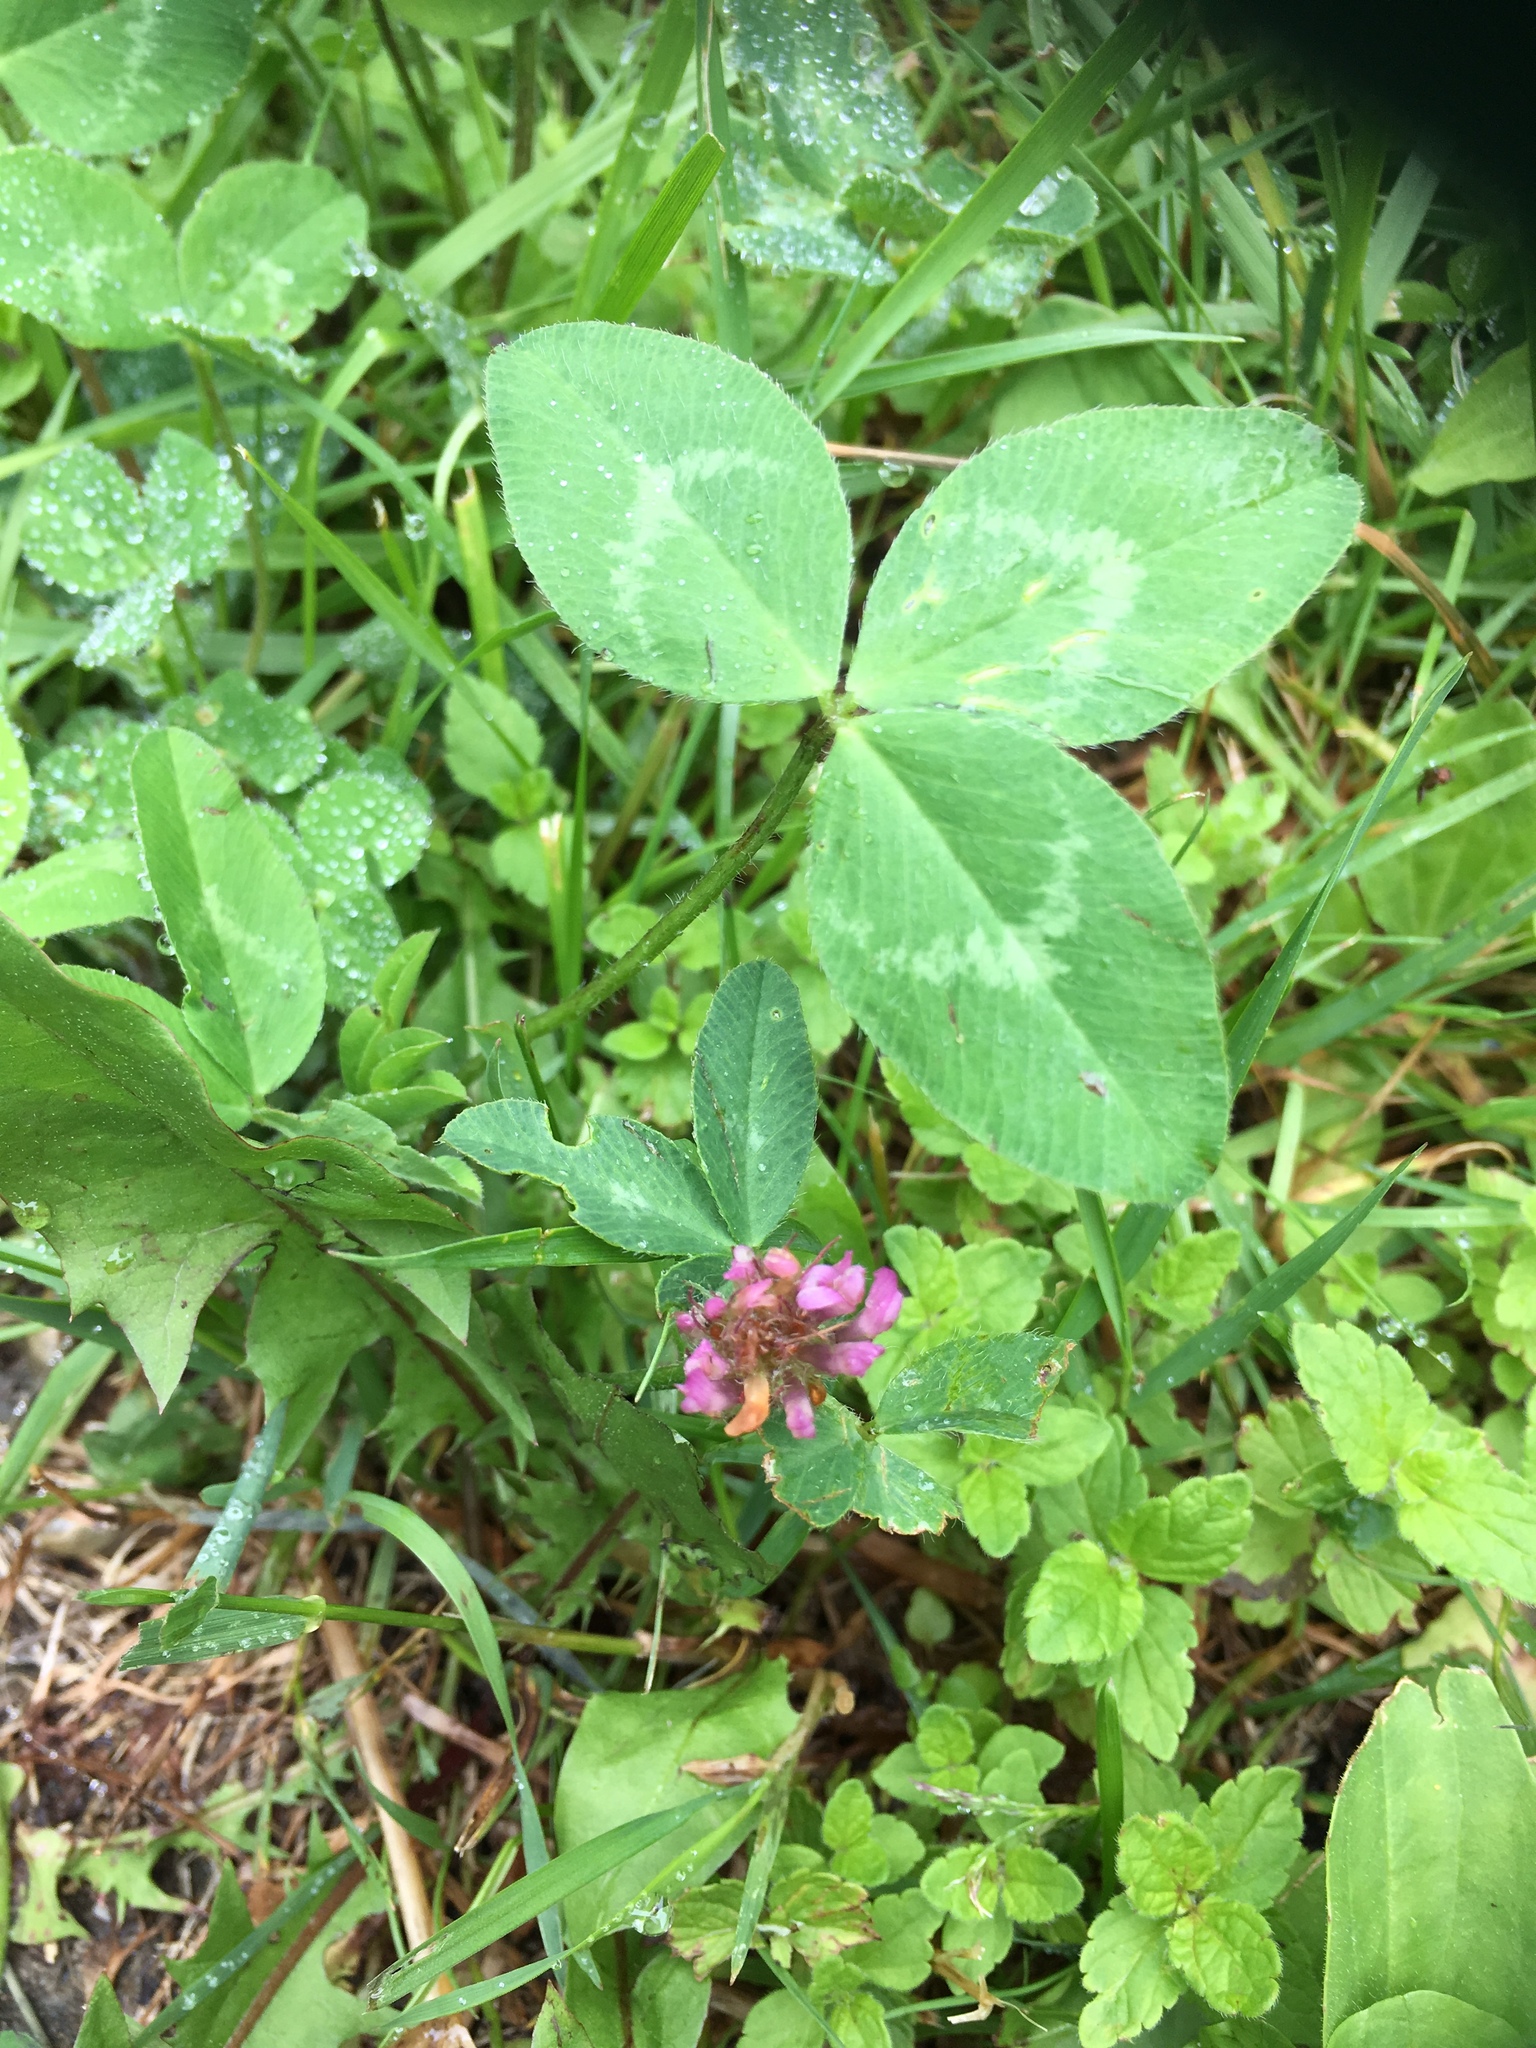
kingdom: Plantae
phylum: Tracheophyta
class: Magnoliopsida
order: Fabales
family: Fabaceae
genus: Trifolium
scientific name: Trifolium pratense
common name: Red clover
